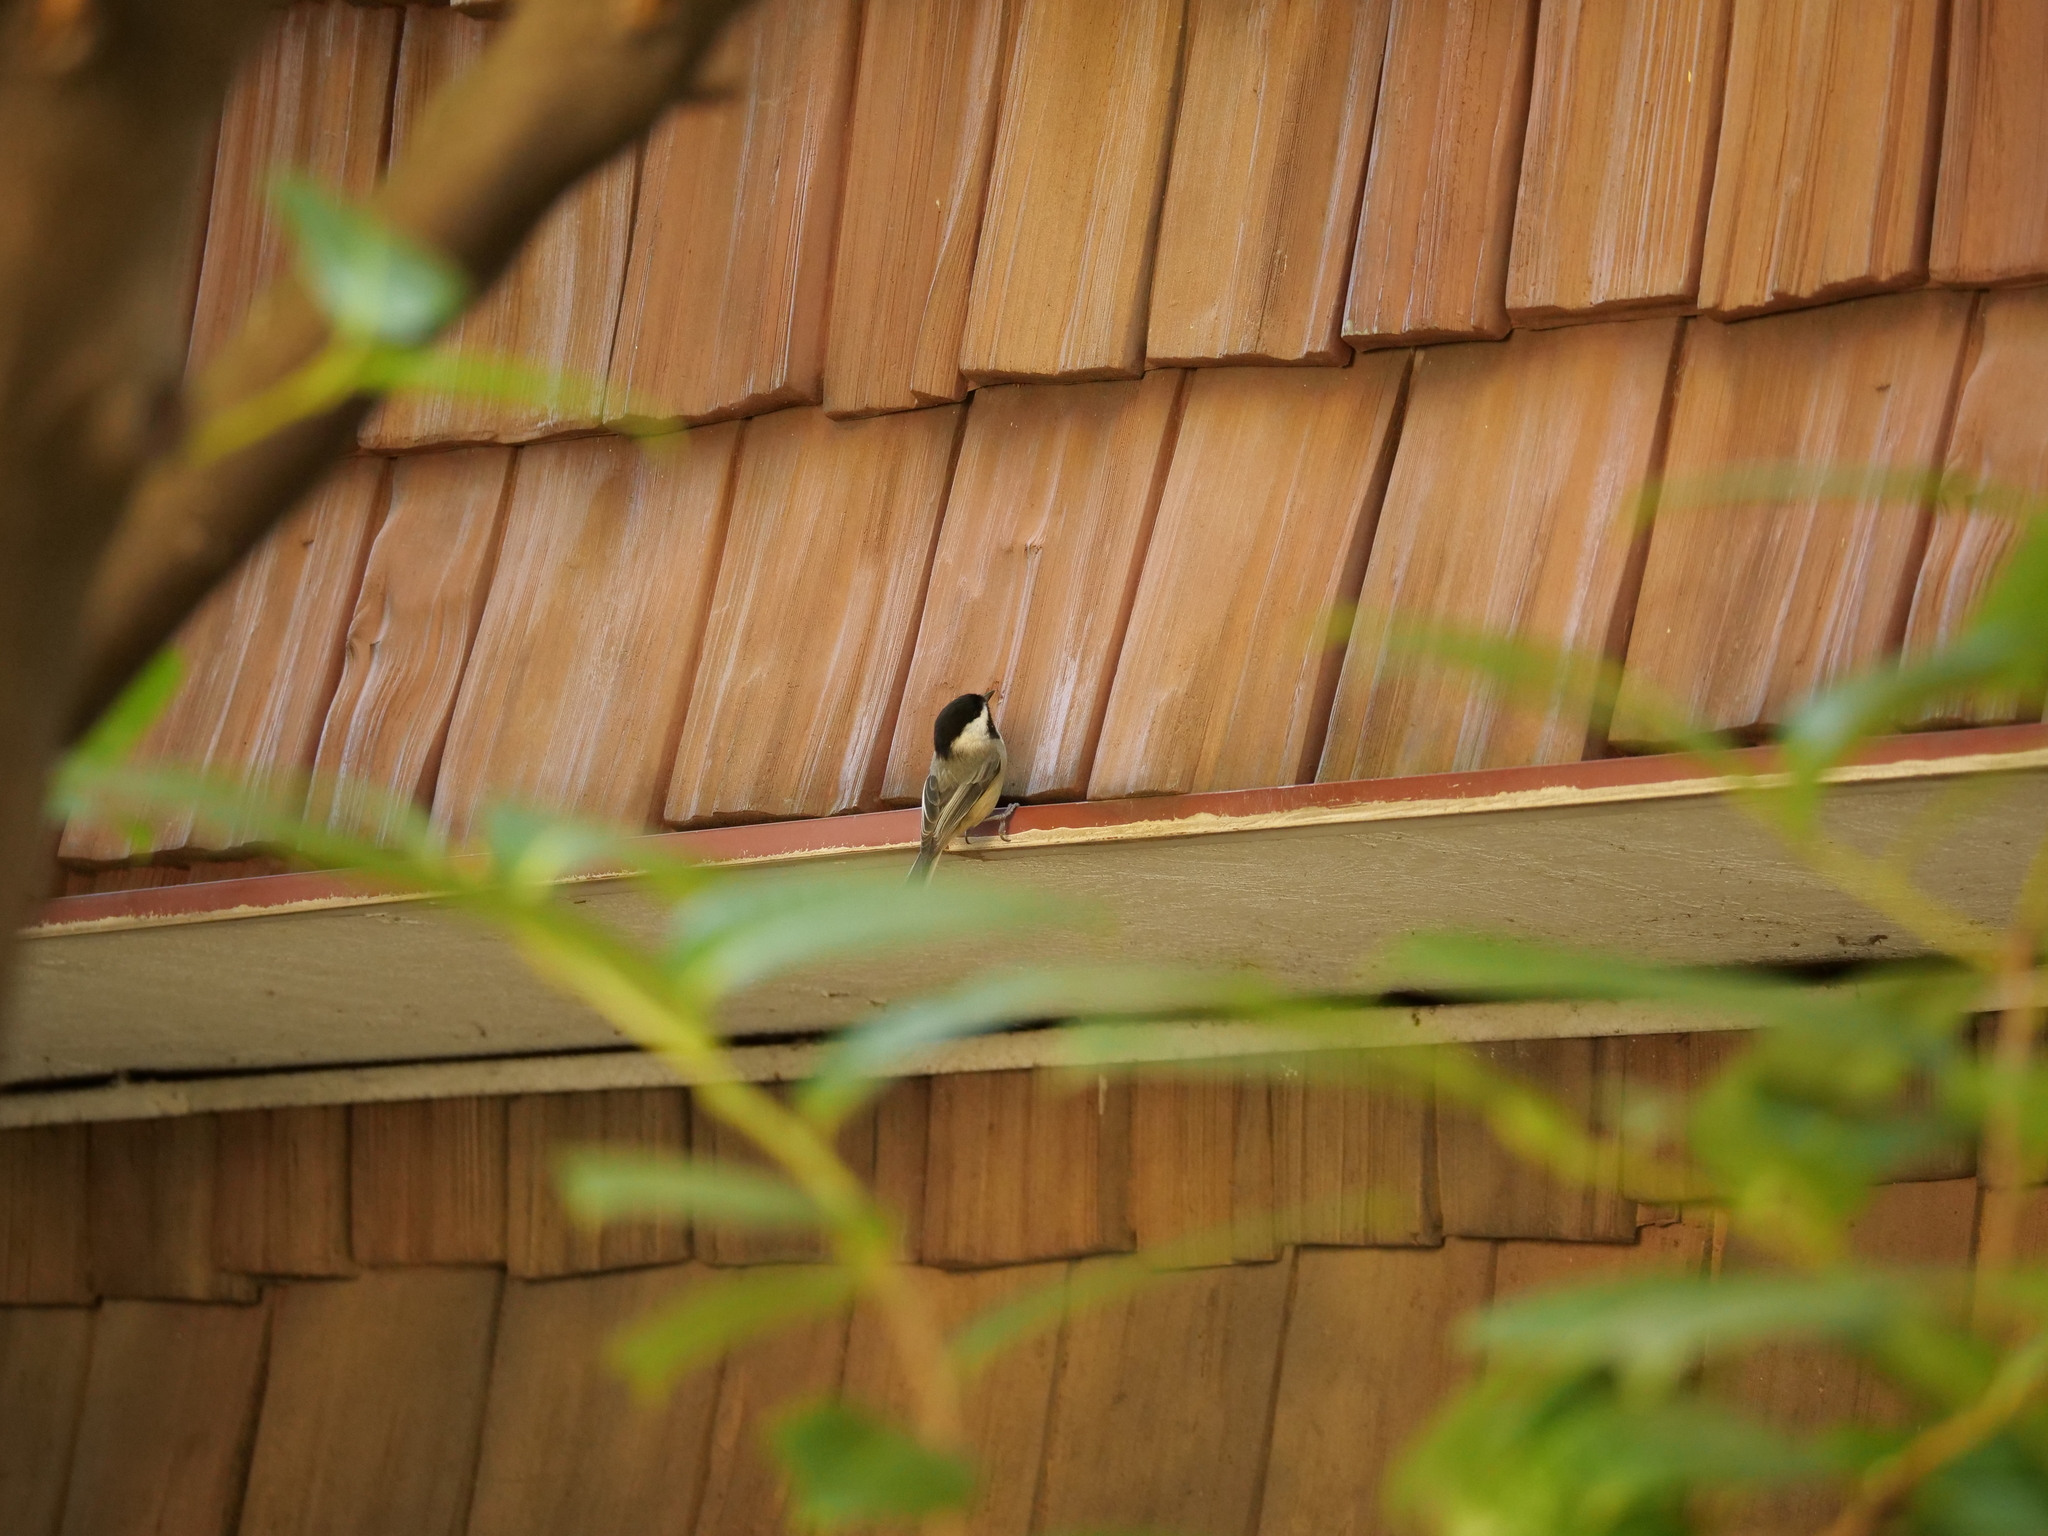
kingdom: Animalia
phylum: Chordata
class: Aves
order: Passeriformes
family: Paridae
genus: Poecile
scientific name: Poecile atricapillus
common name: Black-capped chickadee
